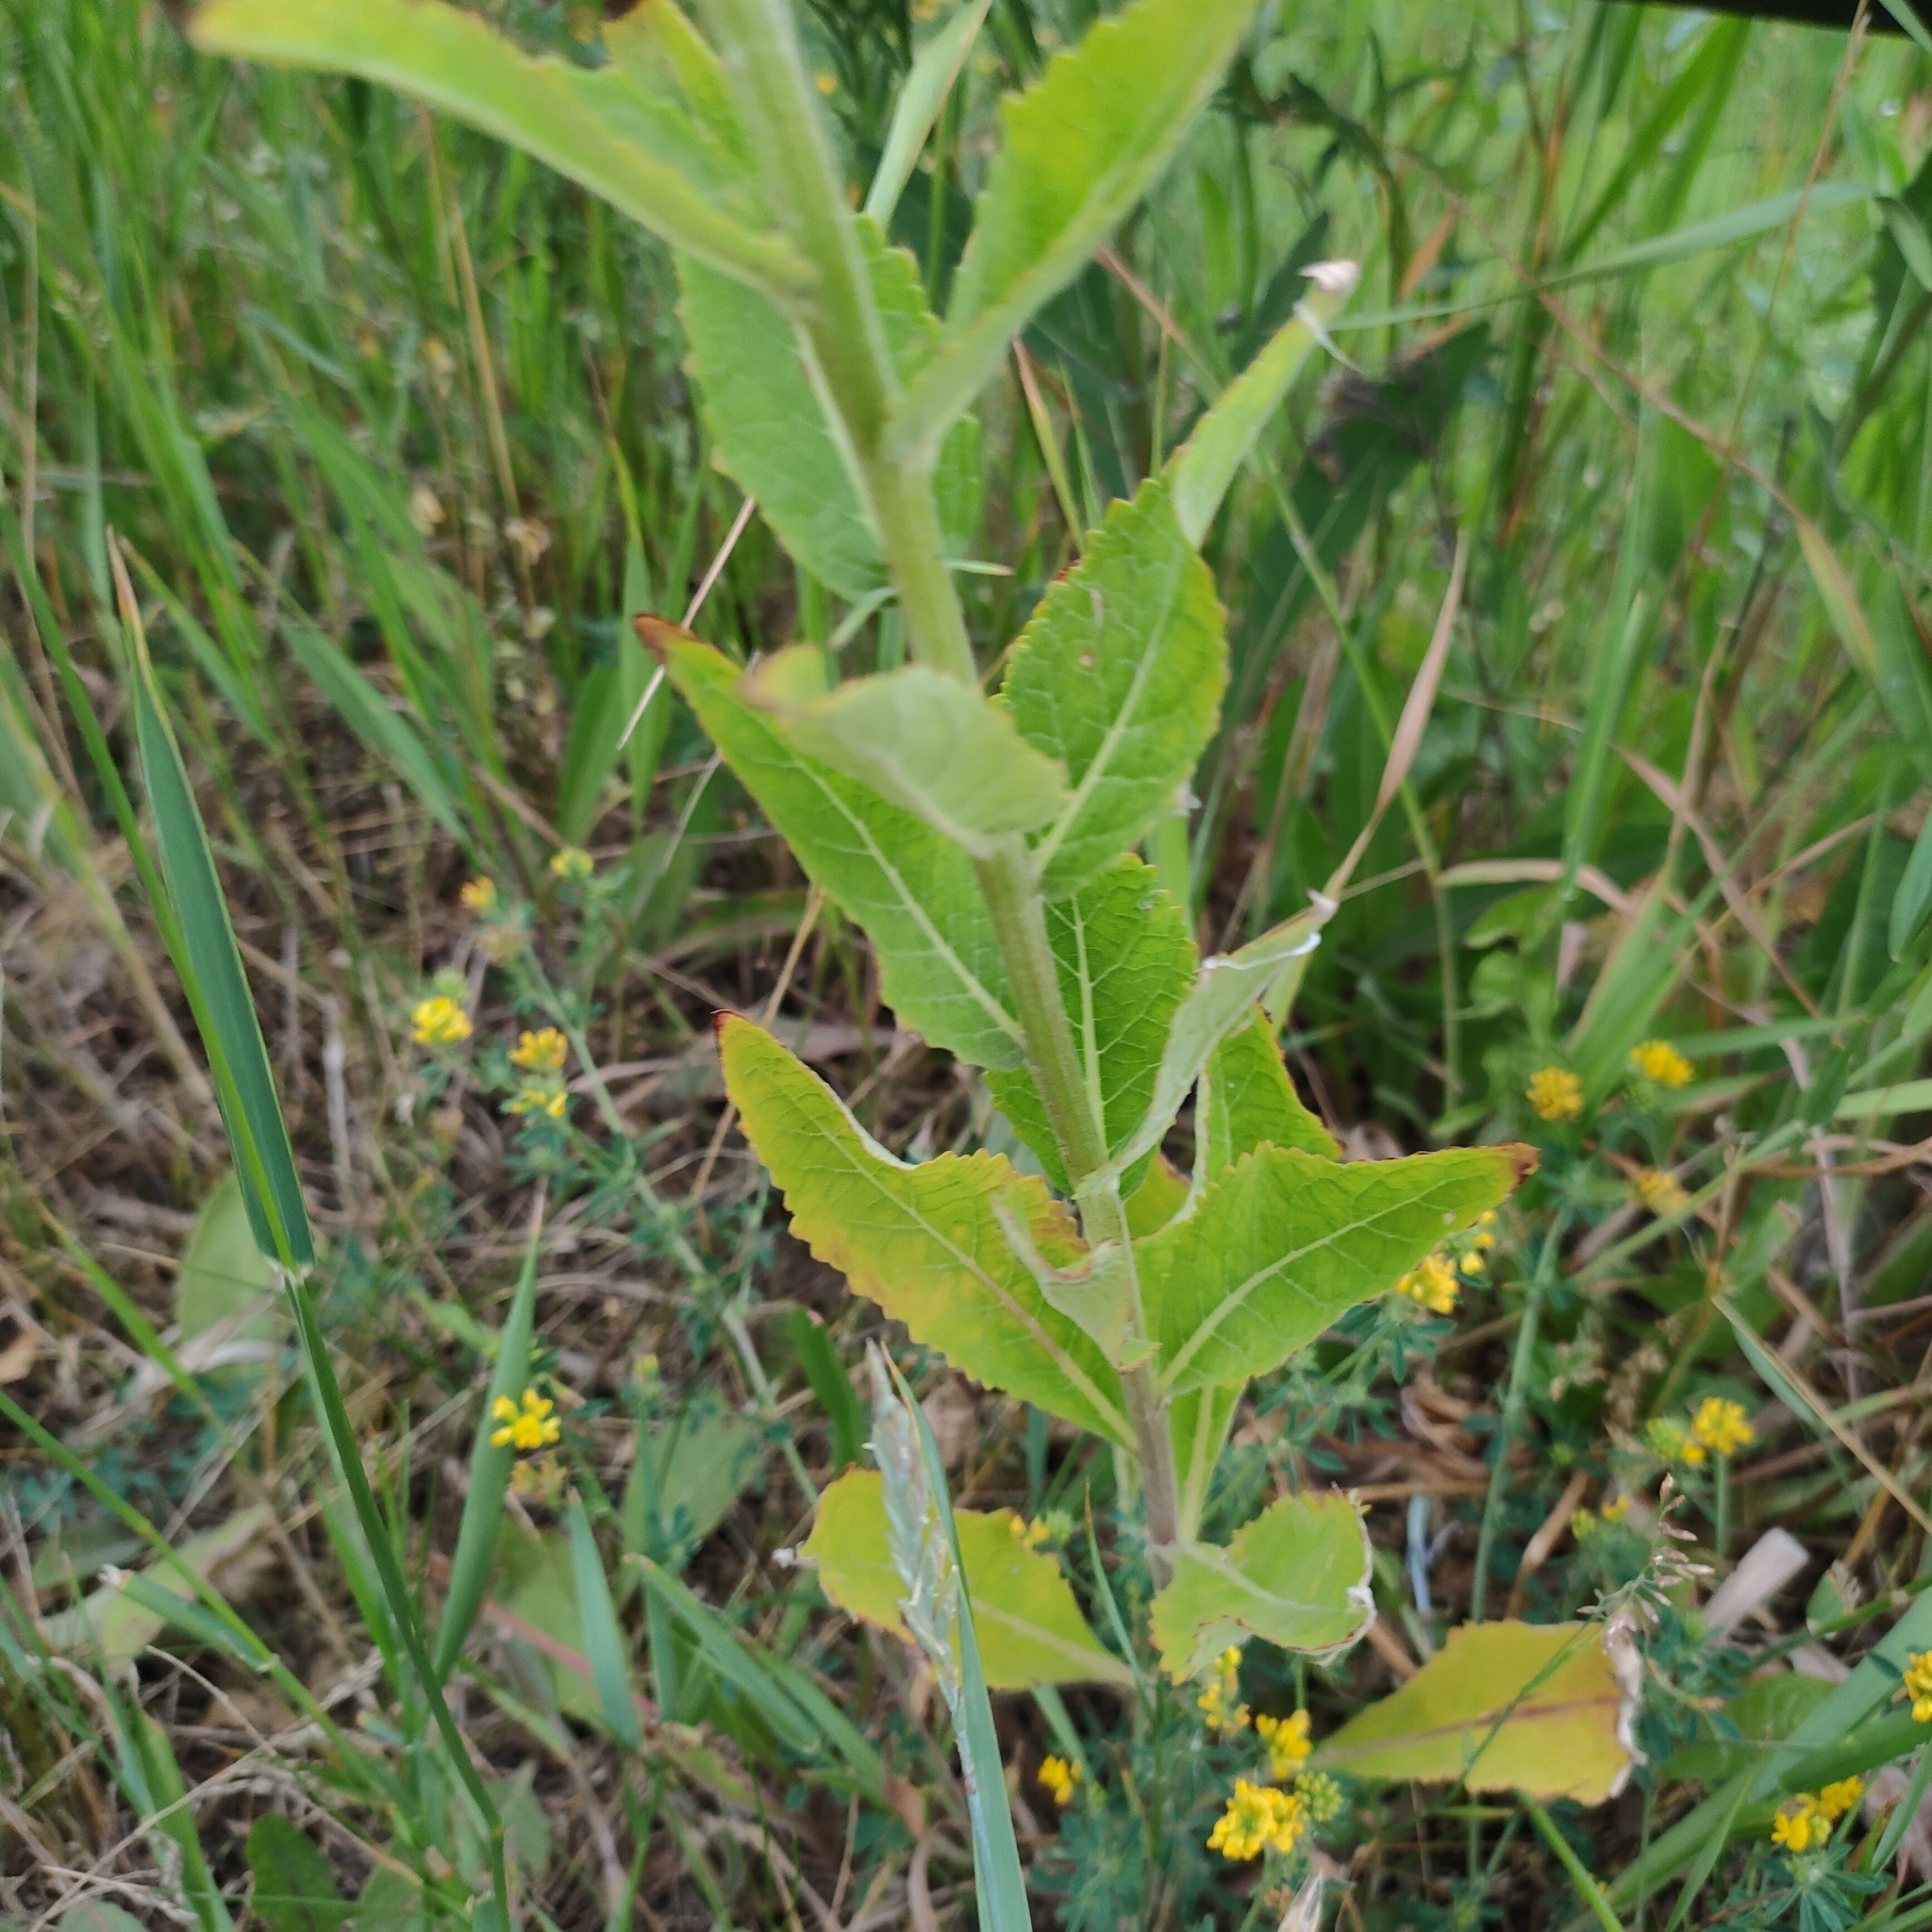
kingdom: Plantae
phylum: Tracheophyta
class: Magnoliopsida
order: Lamiales
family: Scrophulariaceae
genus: Verbascum
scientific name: Verbascum lychnitis
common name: White mullein
